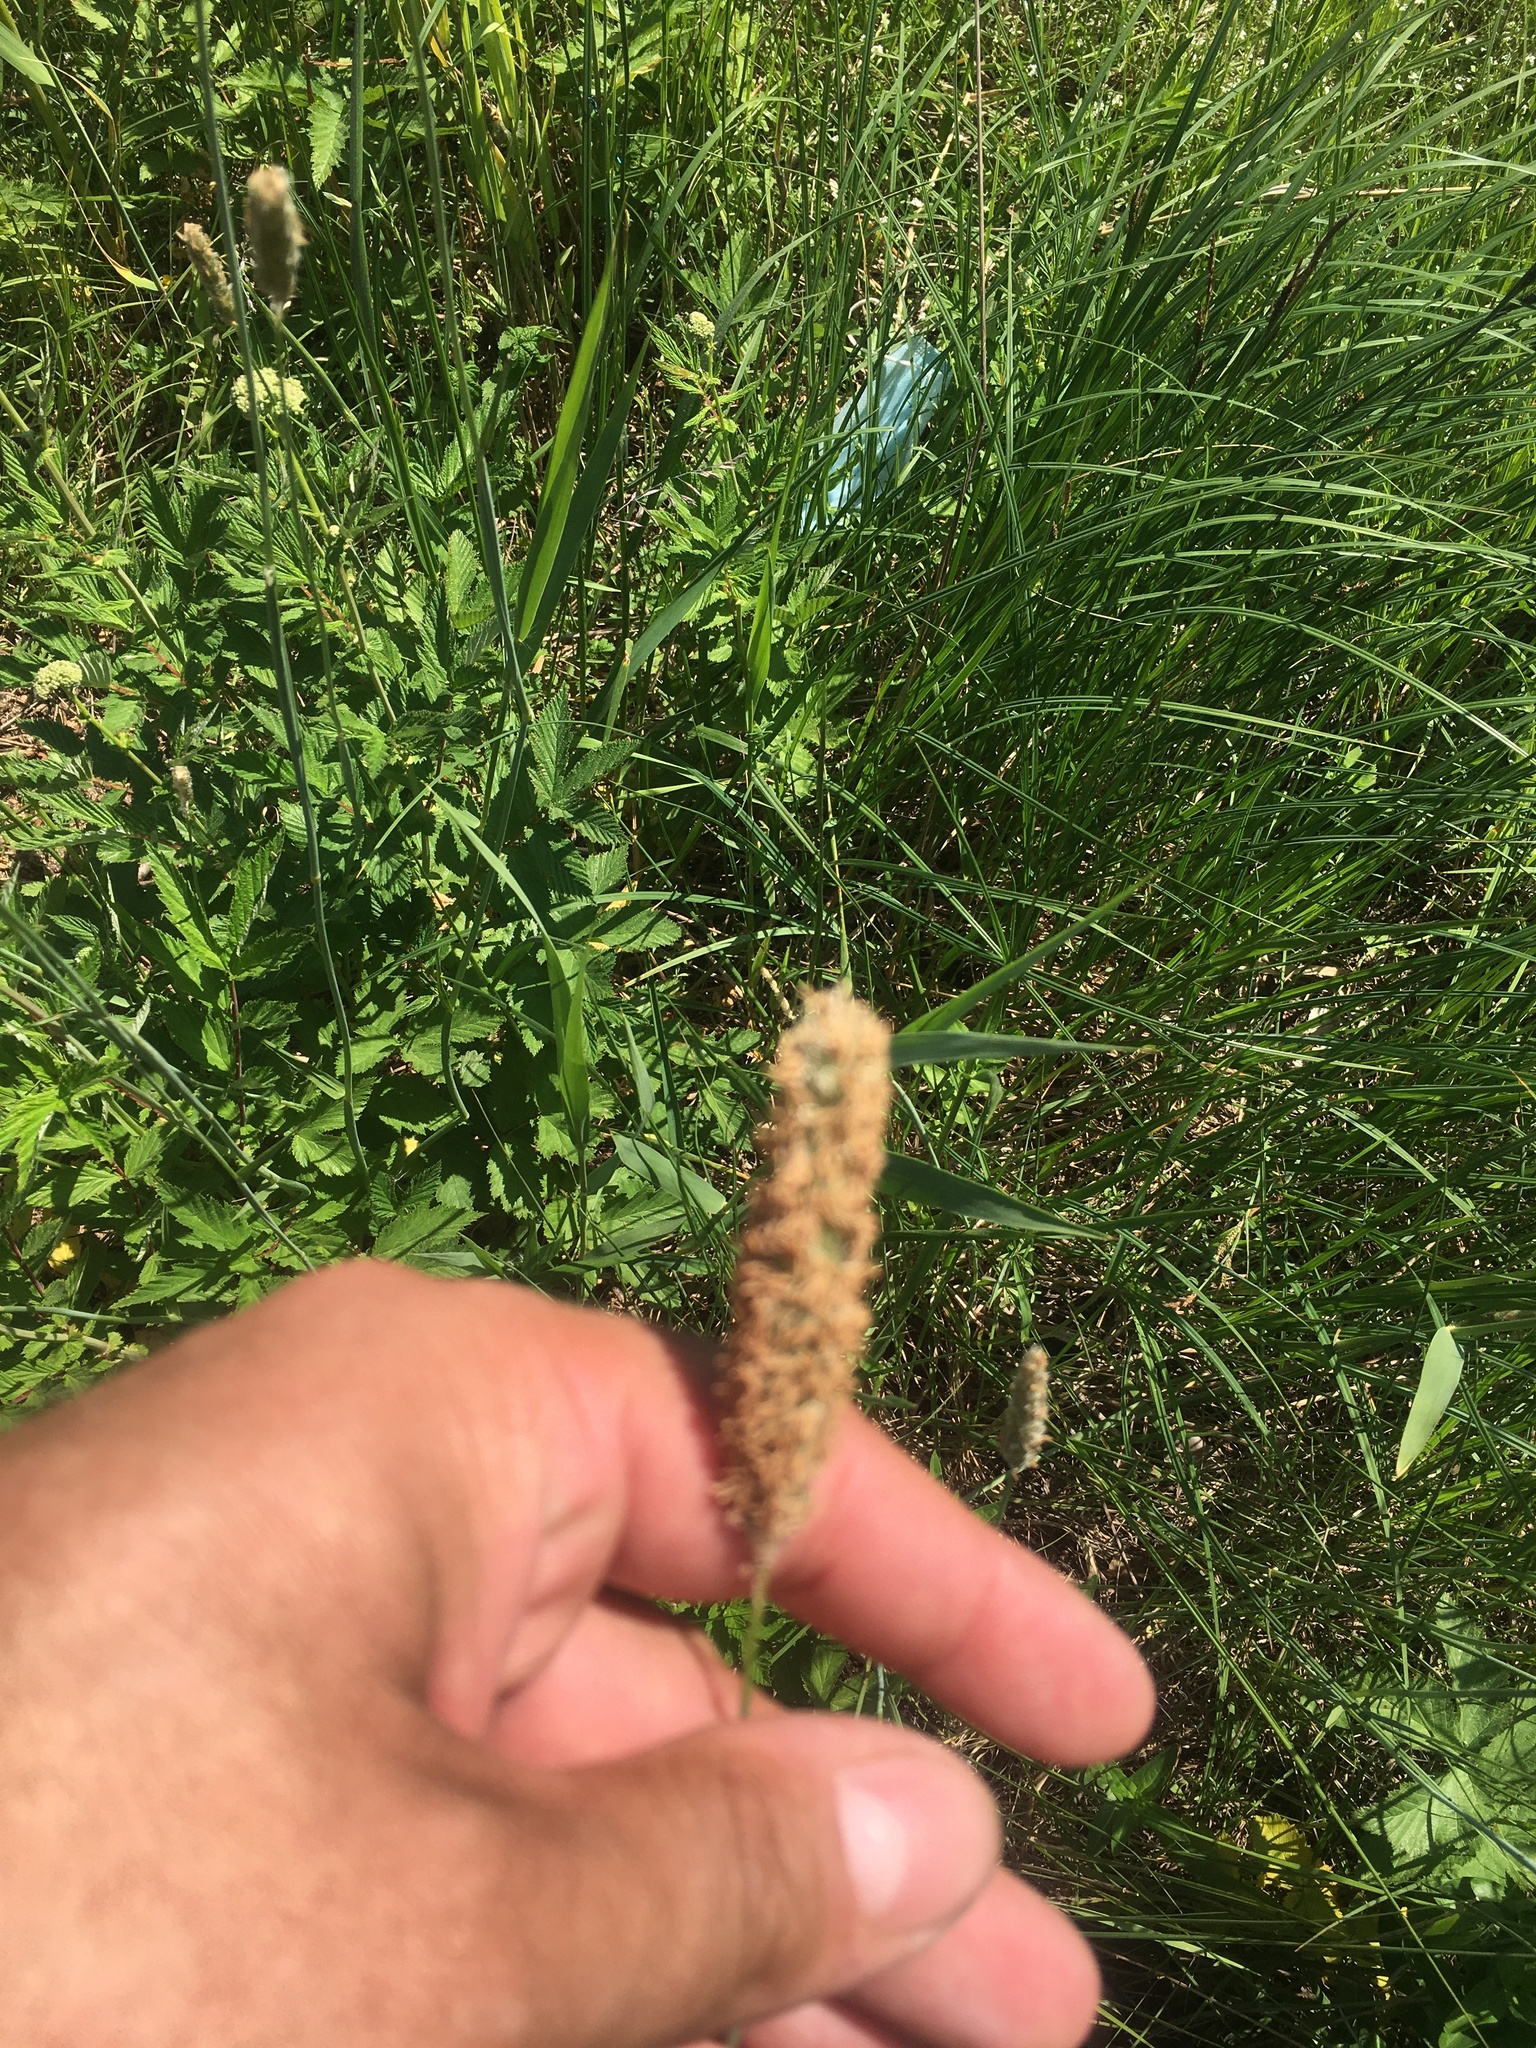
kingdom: Plantae
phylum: Tracheophyta
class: Liliopsida
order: Poales
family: Poaceae
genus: Alopecurus
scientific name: Alopecurus pratensis
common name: Meadow foxtail
